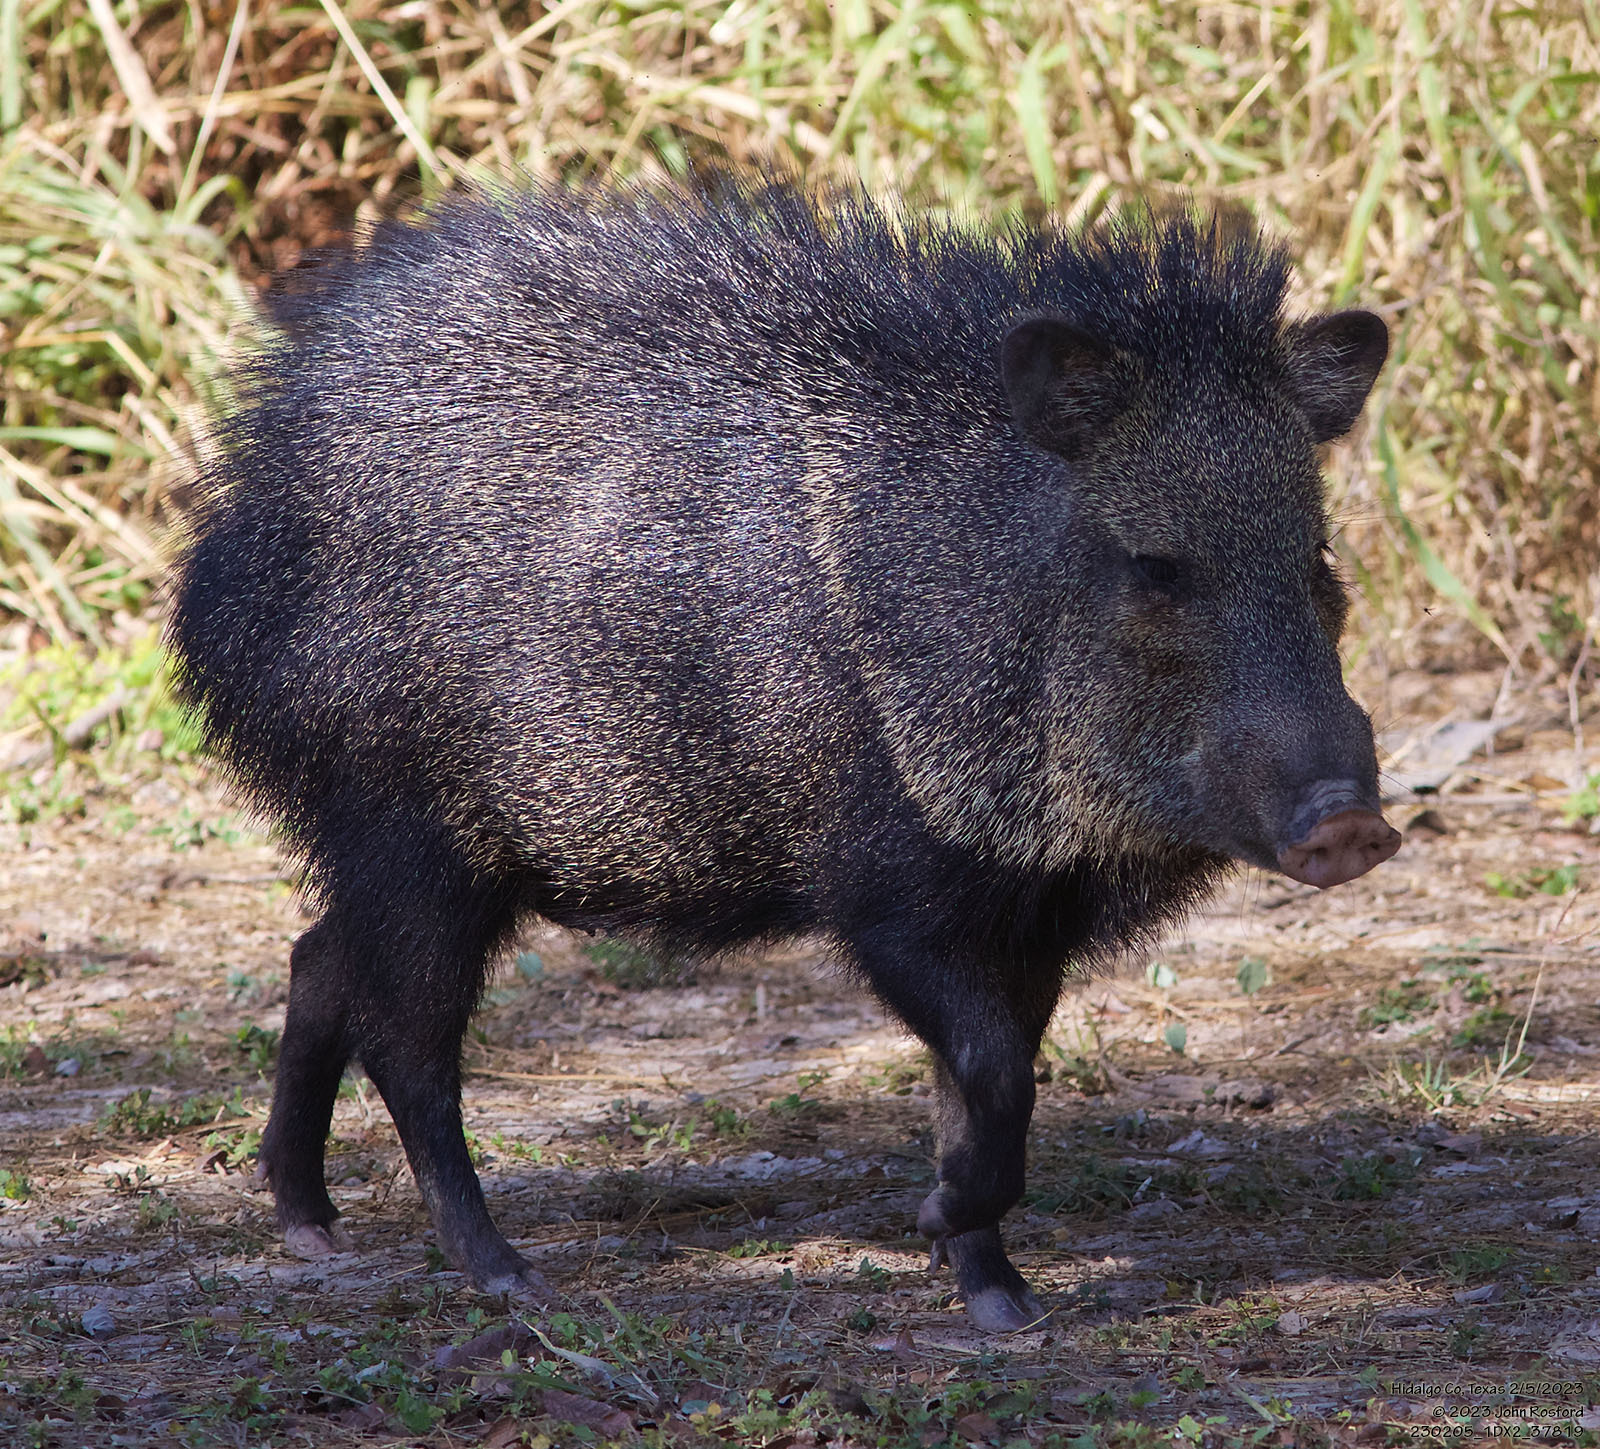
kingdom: Animalia
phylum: Chordata
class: Mammalia
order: Artiodactyla
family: Tayassuidae
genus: Pecari
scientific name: Pecari tajacu
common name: Collared peccary
